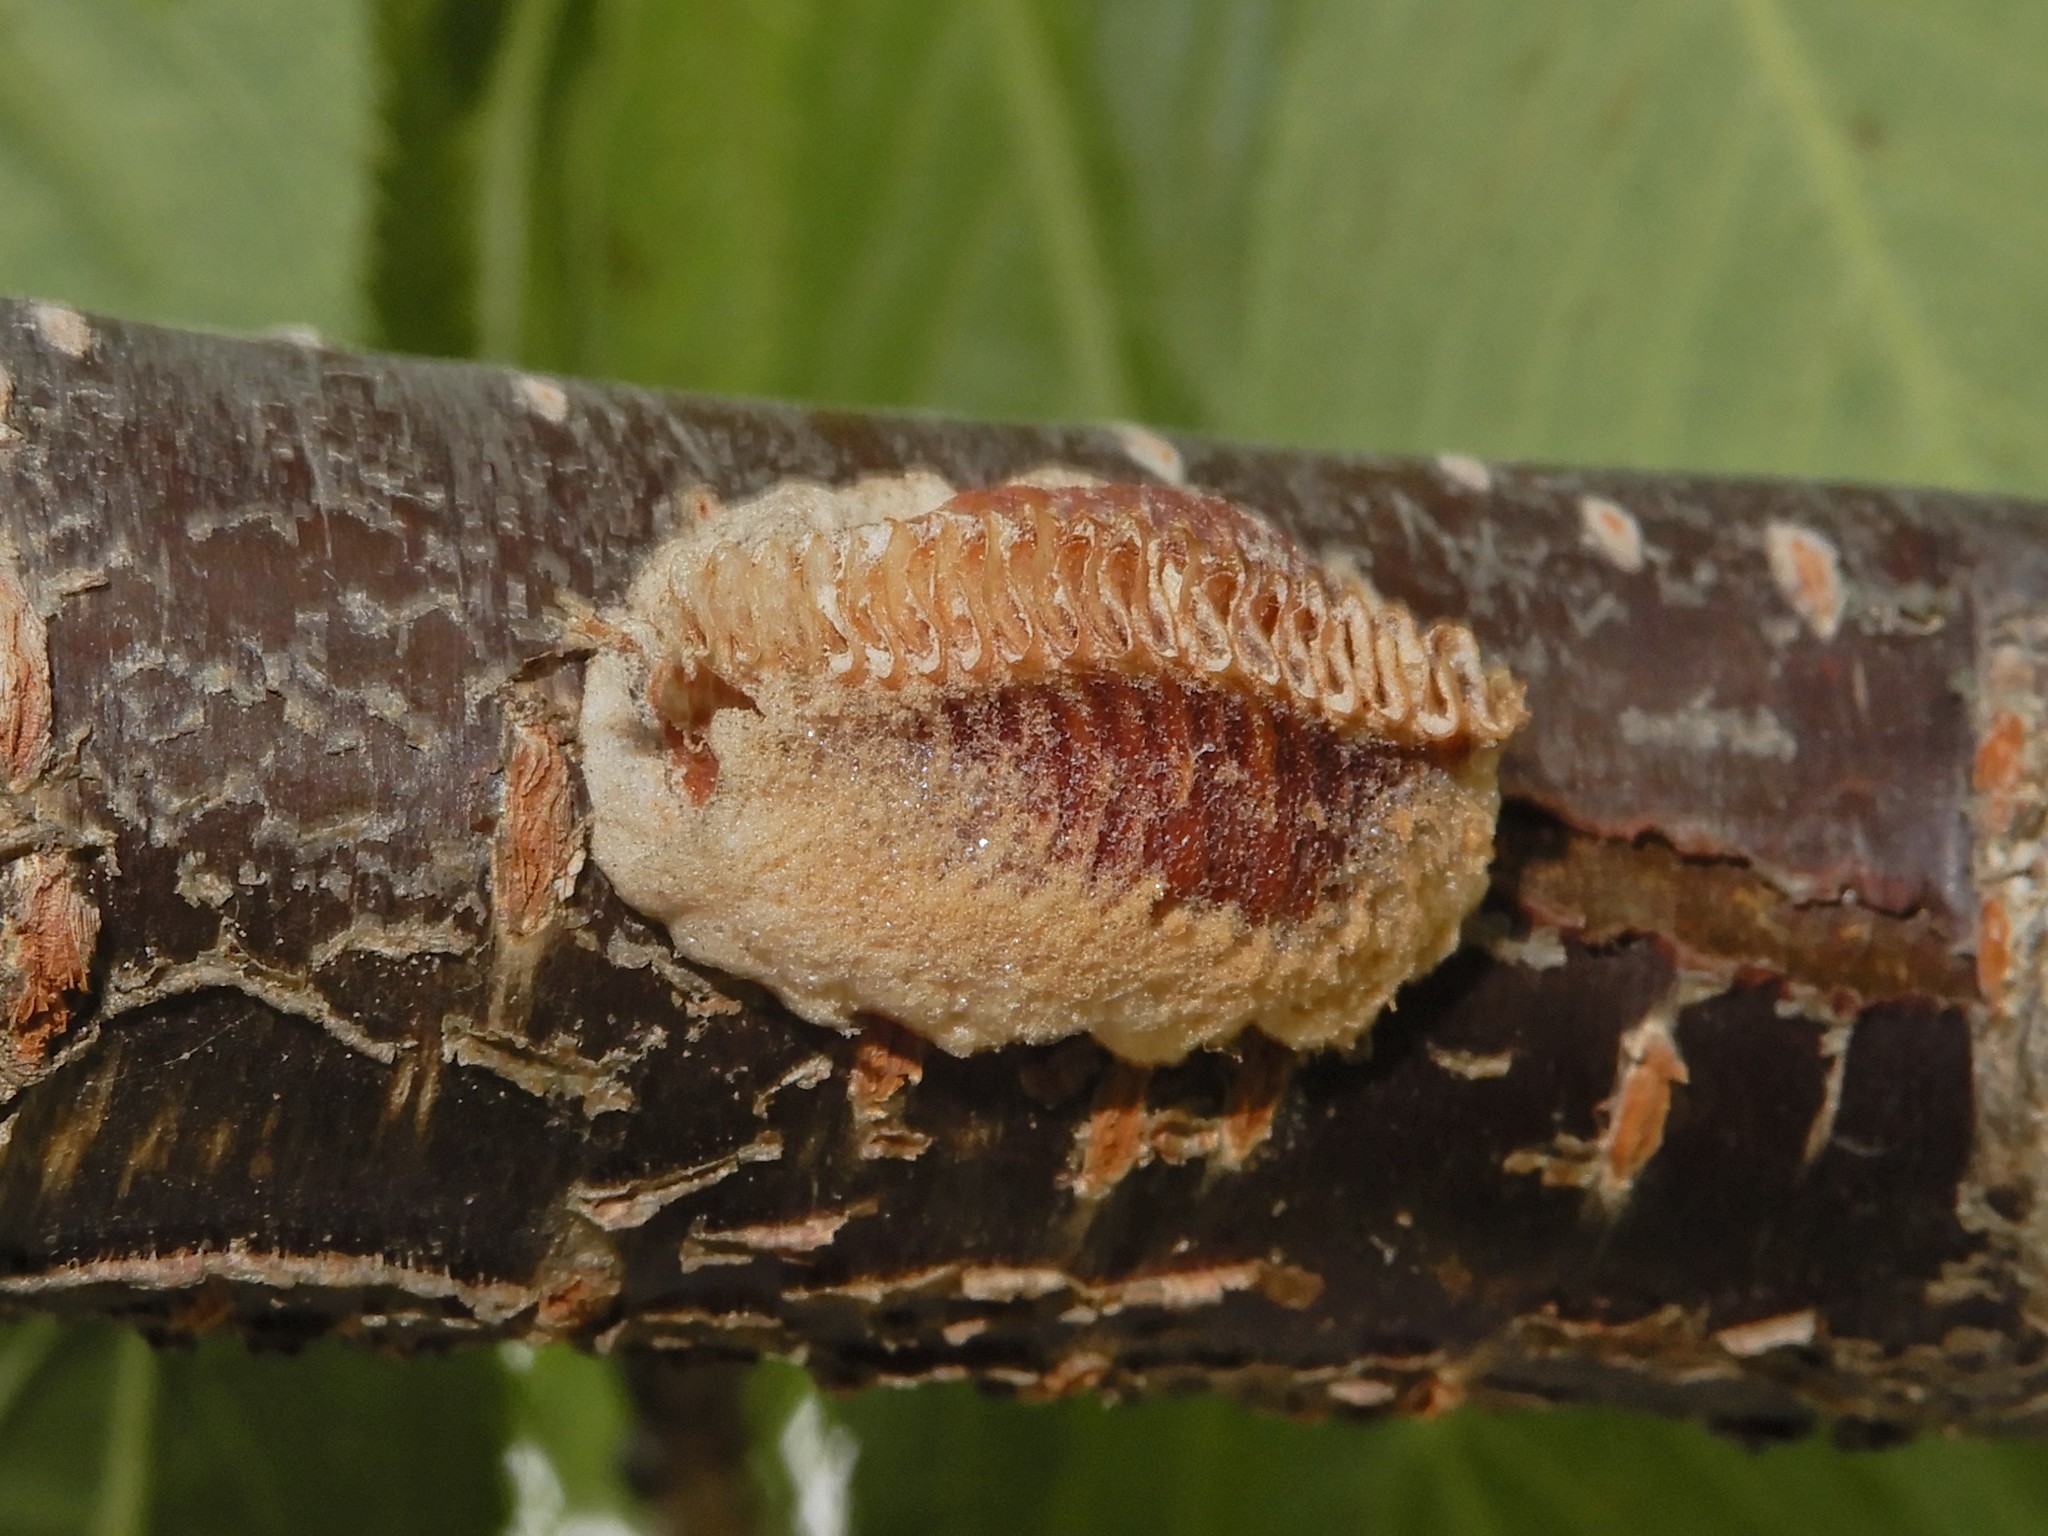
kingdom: Animalia
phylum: Arthropoda
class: Insecta
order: Mantodea
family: Miomantidae
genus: Miomantis
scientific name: Miomantis caffra
